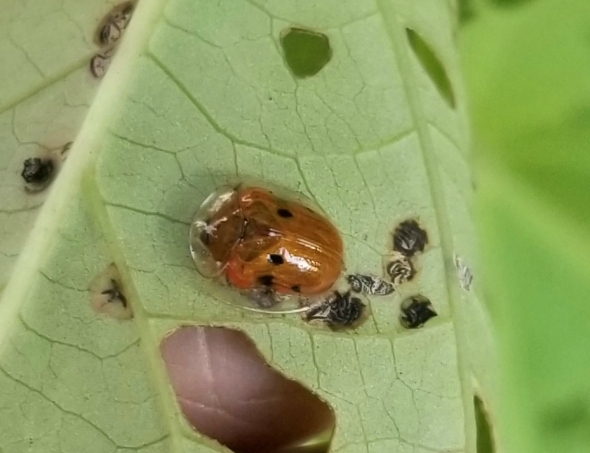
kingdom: Animalia
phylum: Arthropoda
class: Insecta
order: Coleoptera
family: Chrysomelidae
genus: Charidotella
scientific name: Charidotella sexpunctata
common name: Golden tortoise beetle
